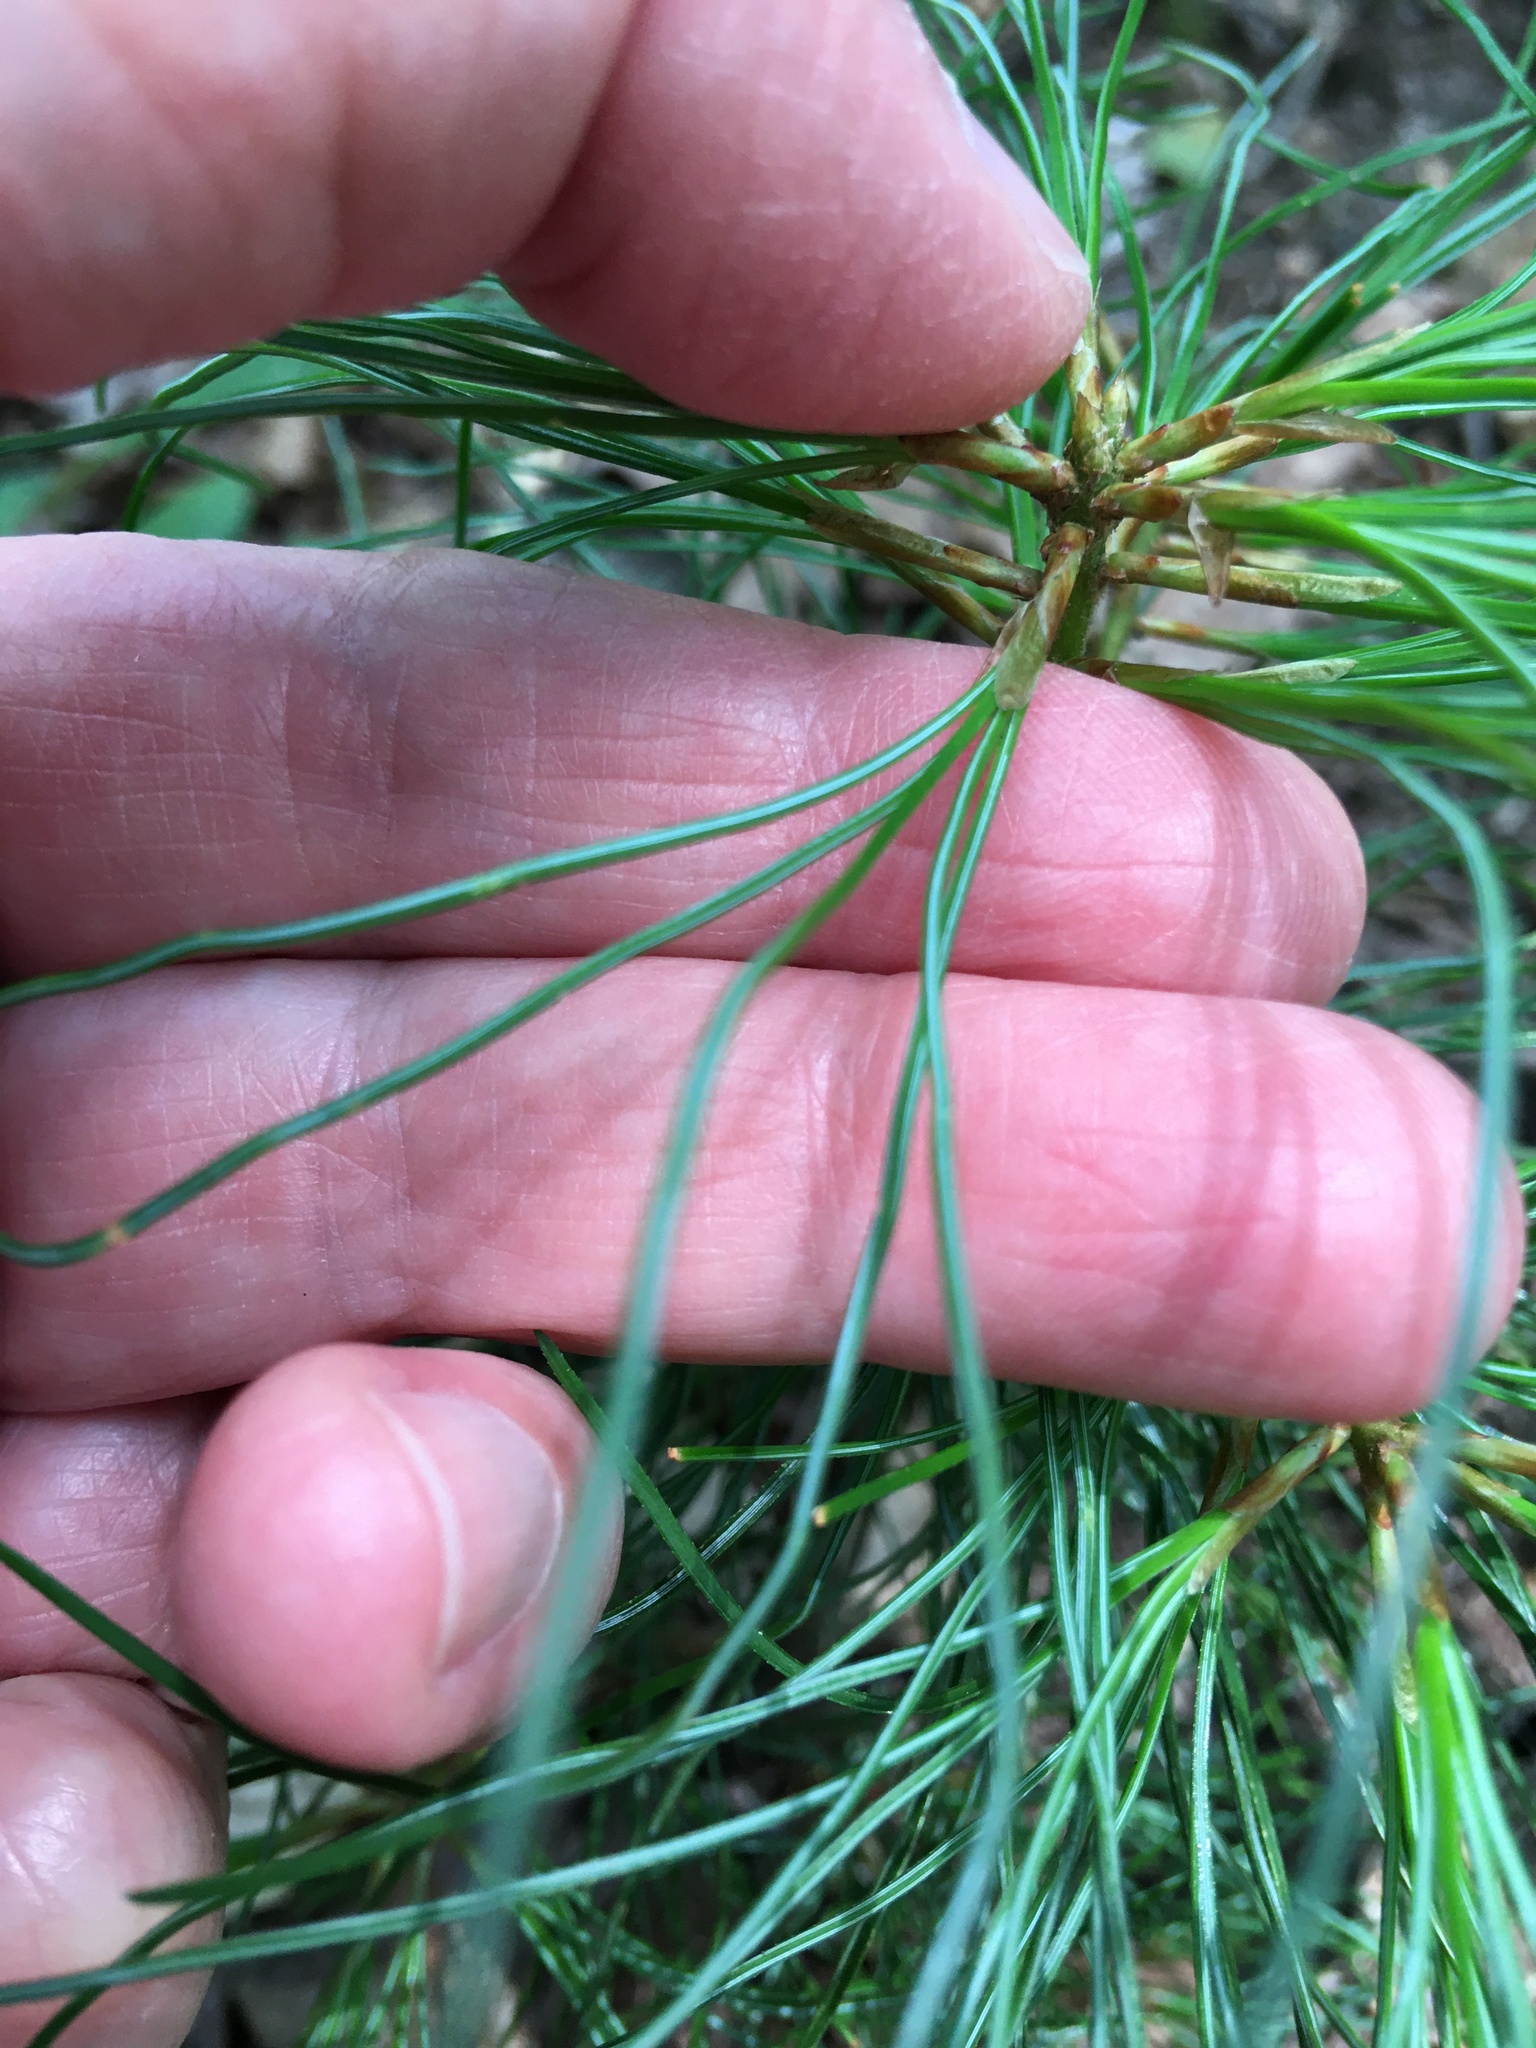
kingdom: Plantae
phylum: Tracheophyta
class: Pinopsida
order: Pinales
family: Pinaceae
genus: Pinus
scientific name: Pinus strobus
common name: Weymouth pine
